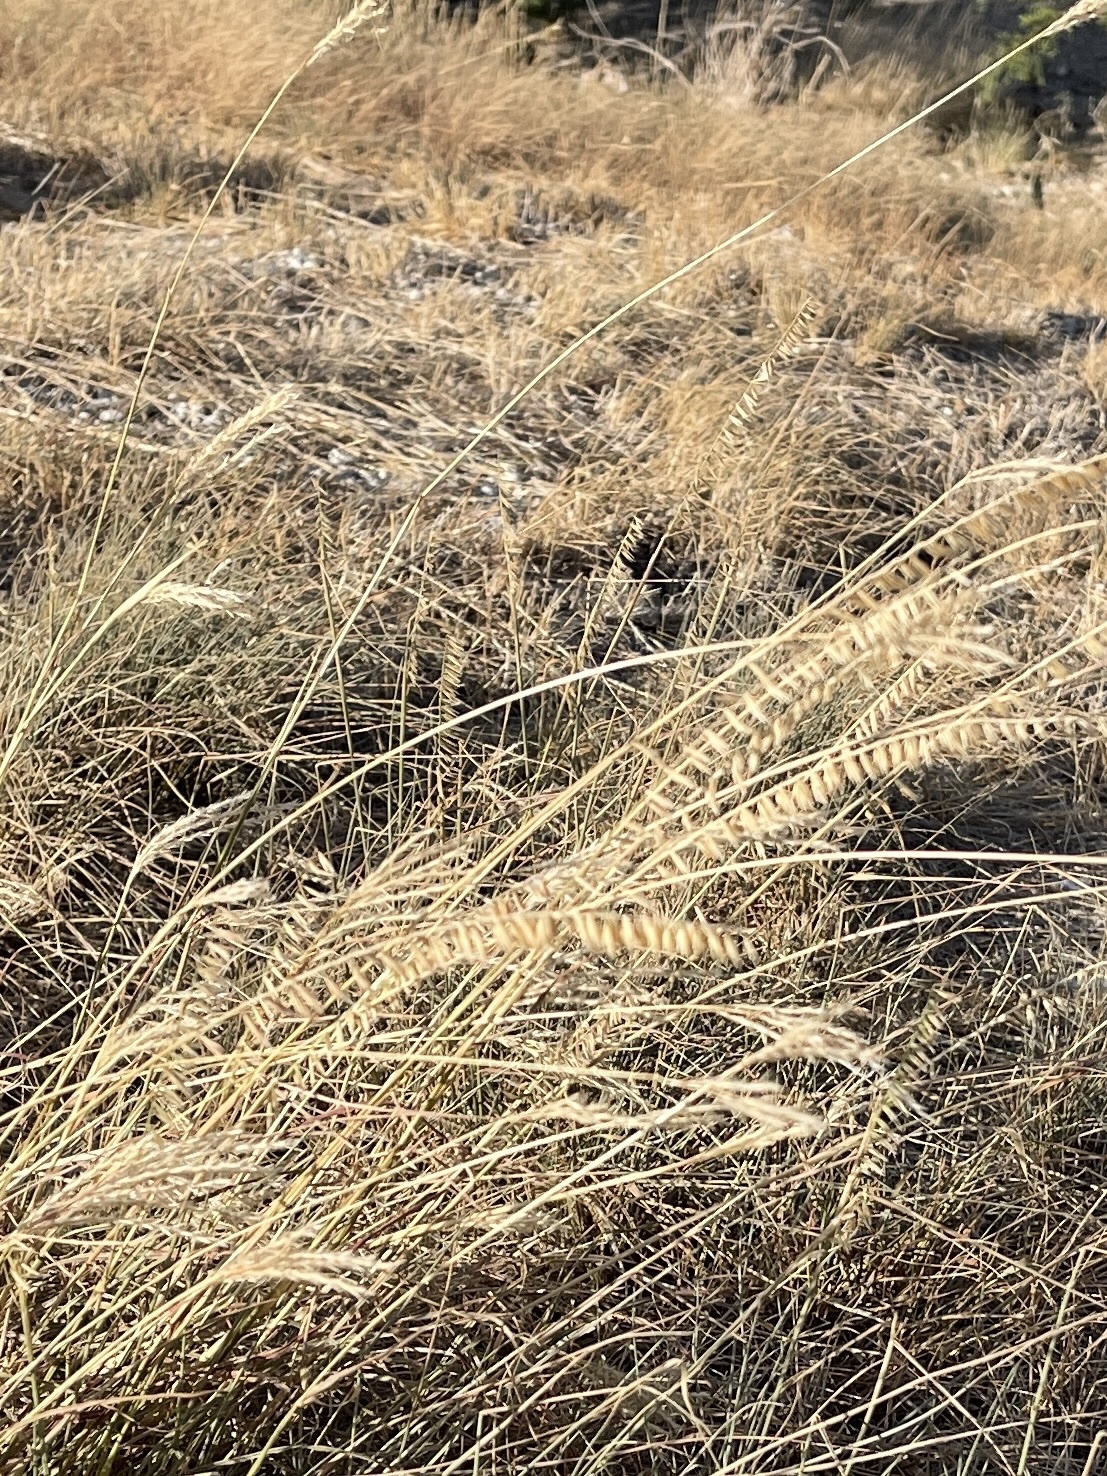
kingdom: Plantae
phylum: Tracheophyta
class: Liliopsida
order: Poales
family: Poaceae
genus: Bouteloua
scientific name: Bouteloua curtipendula
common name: Side-oats grama
